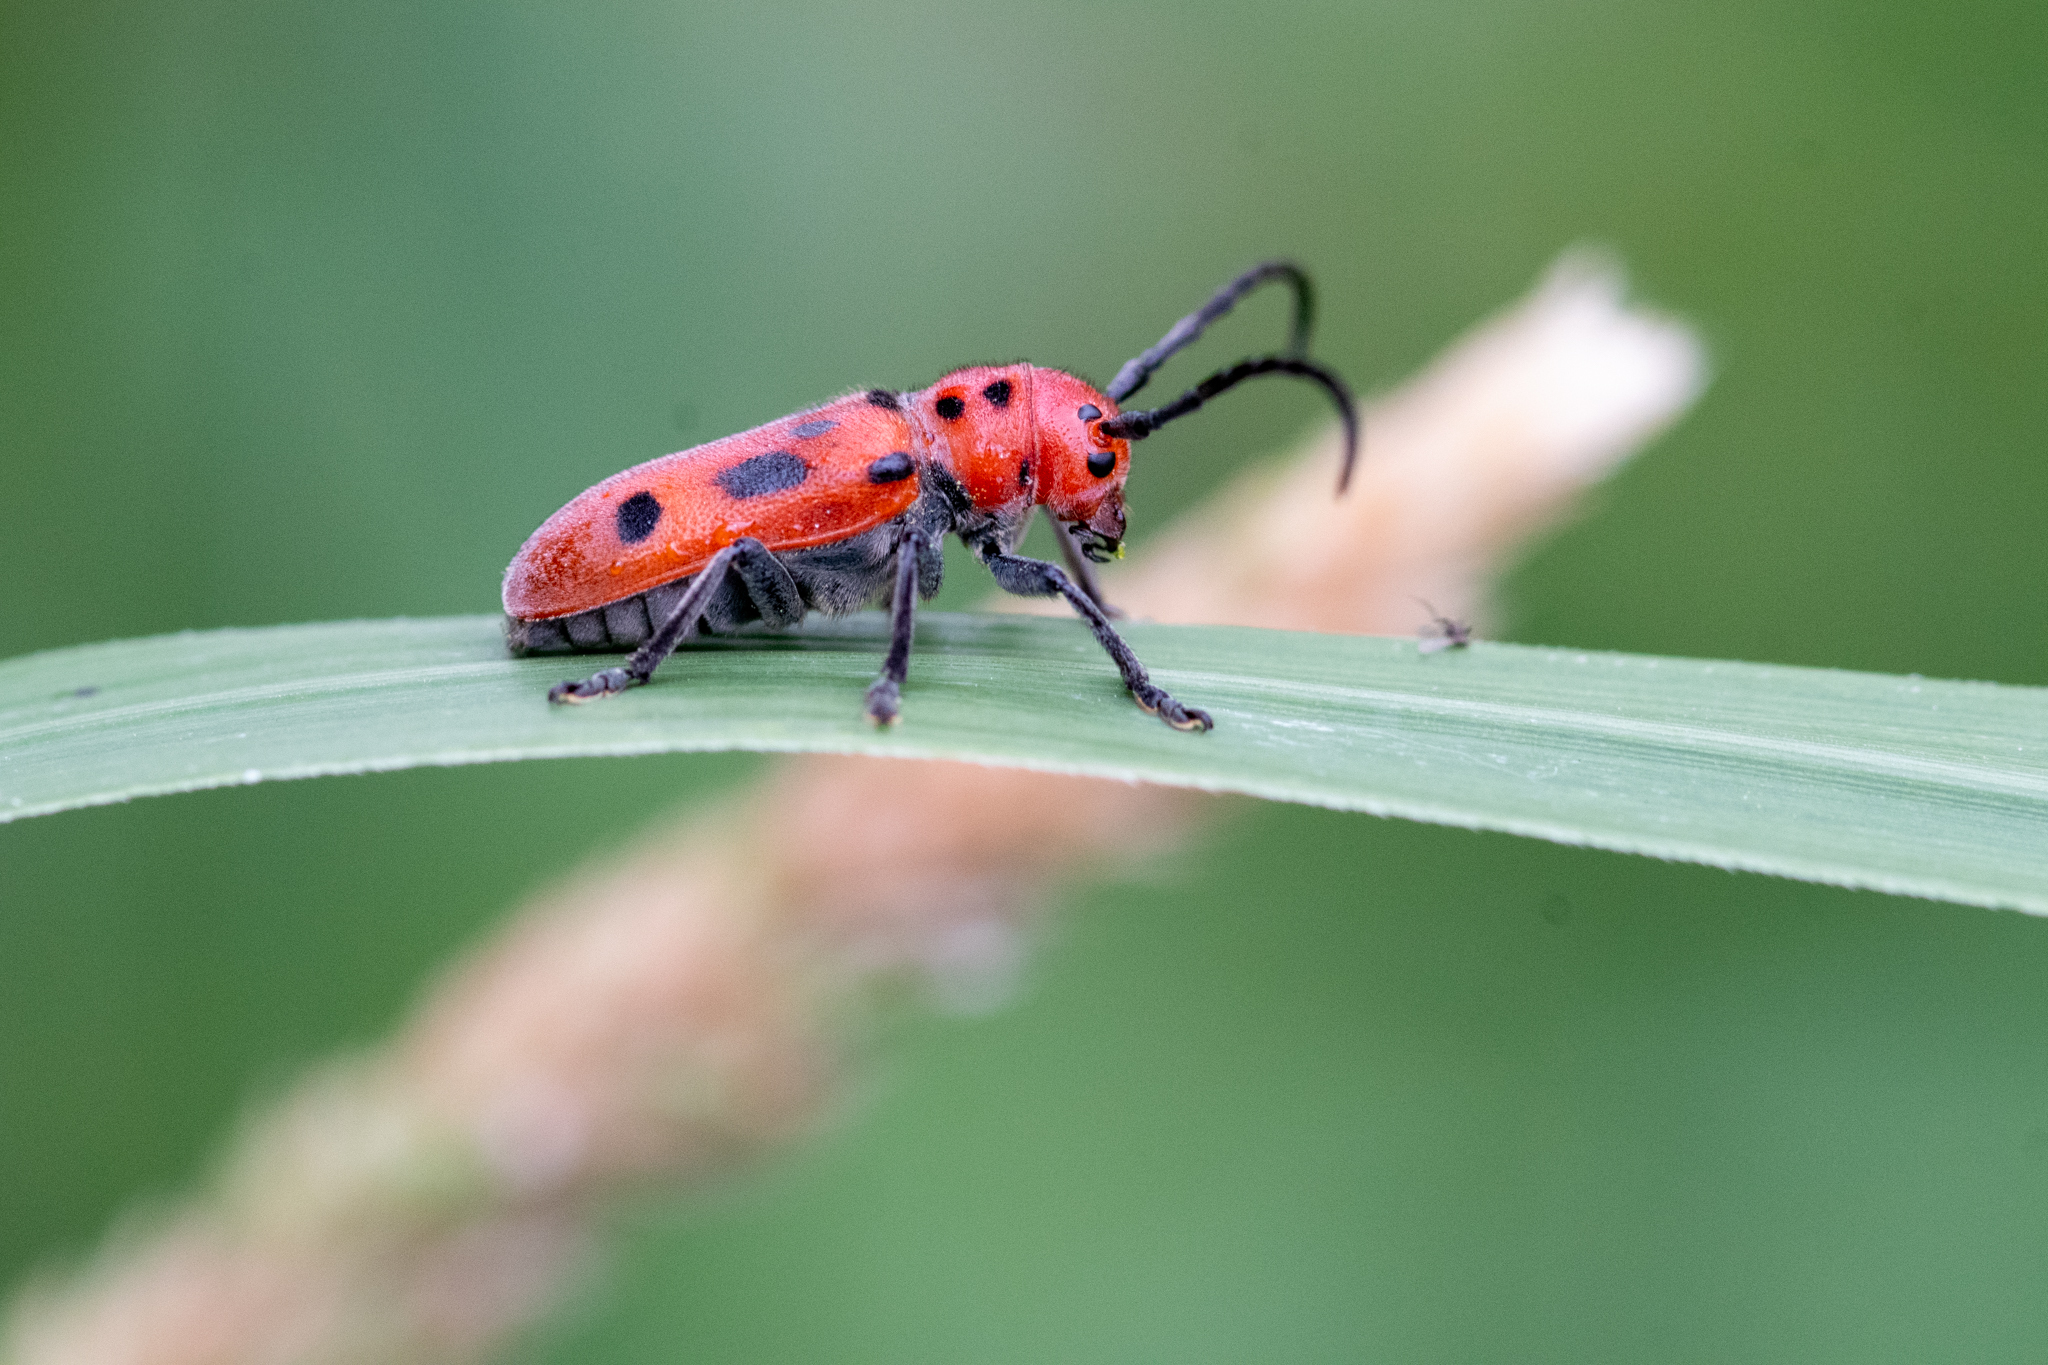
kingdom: Animalia
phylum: Arthropoda
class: Insecta
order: Coleoptera
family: Cerambycidae
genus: Tetraopes
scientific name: Tetraopes tetrophthalmus
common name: Red milkweed beetle
